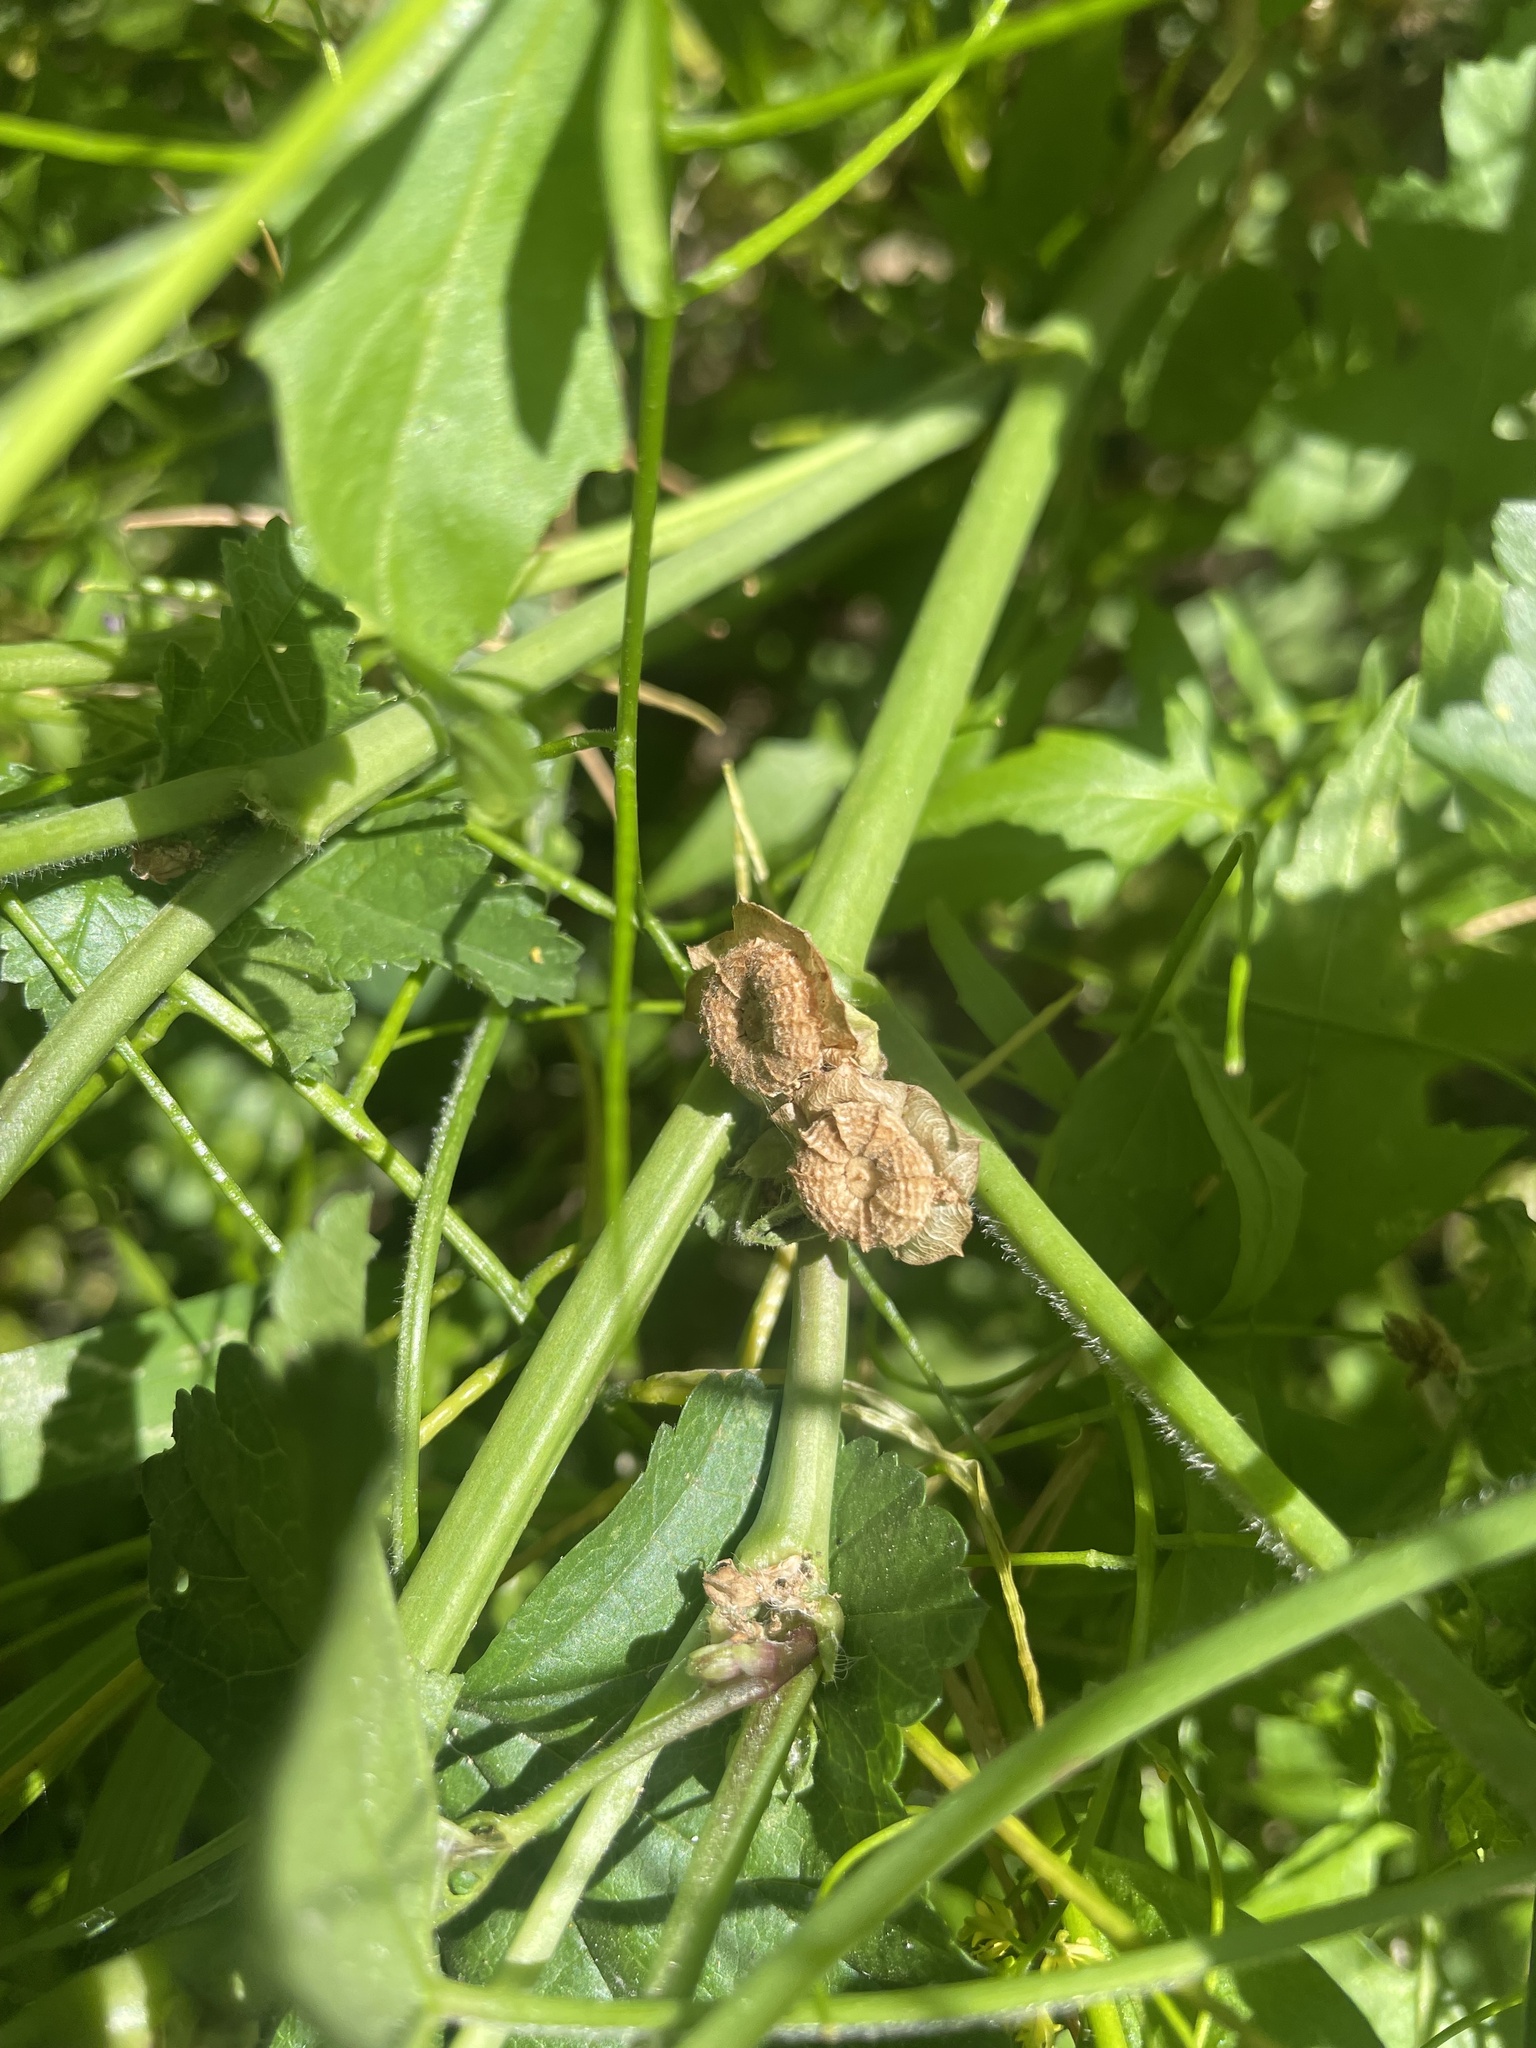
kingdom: Plantae
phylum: Tracheophyta
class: Magnoliopsida
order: Malvales
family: Malvaceae
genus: Malva
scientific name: Malva parviflora
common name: Least mallow
